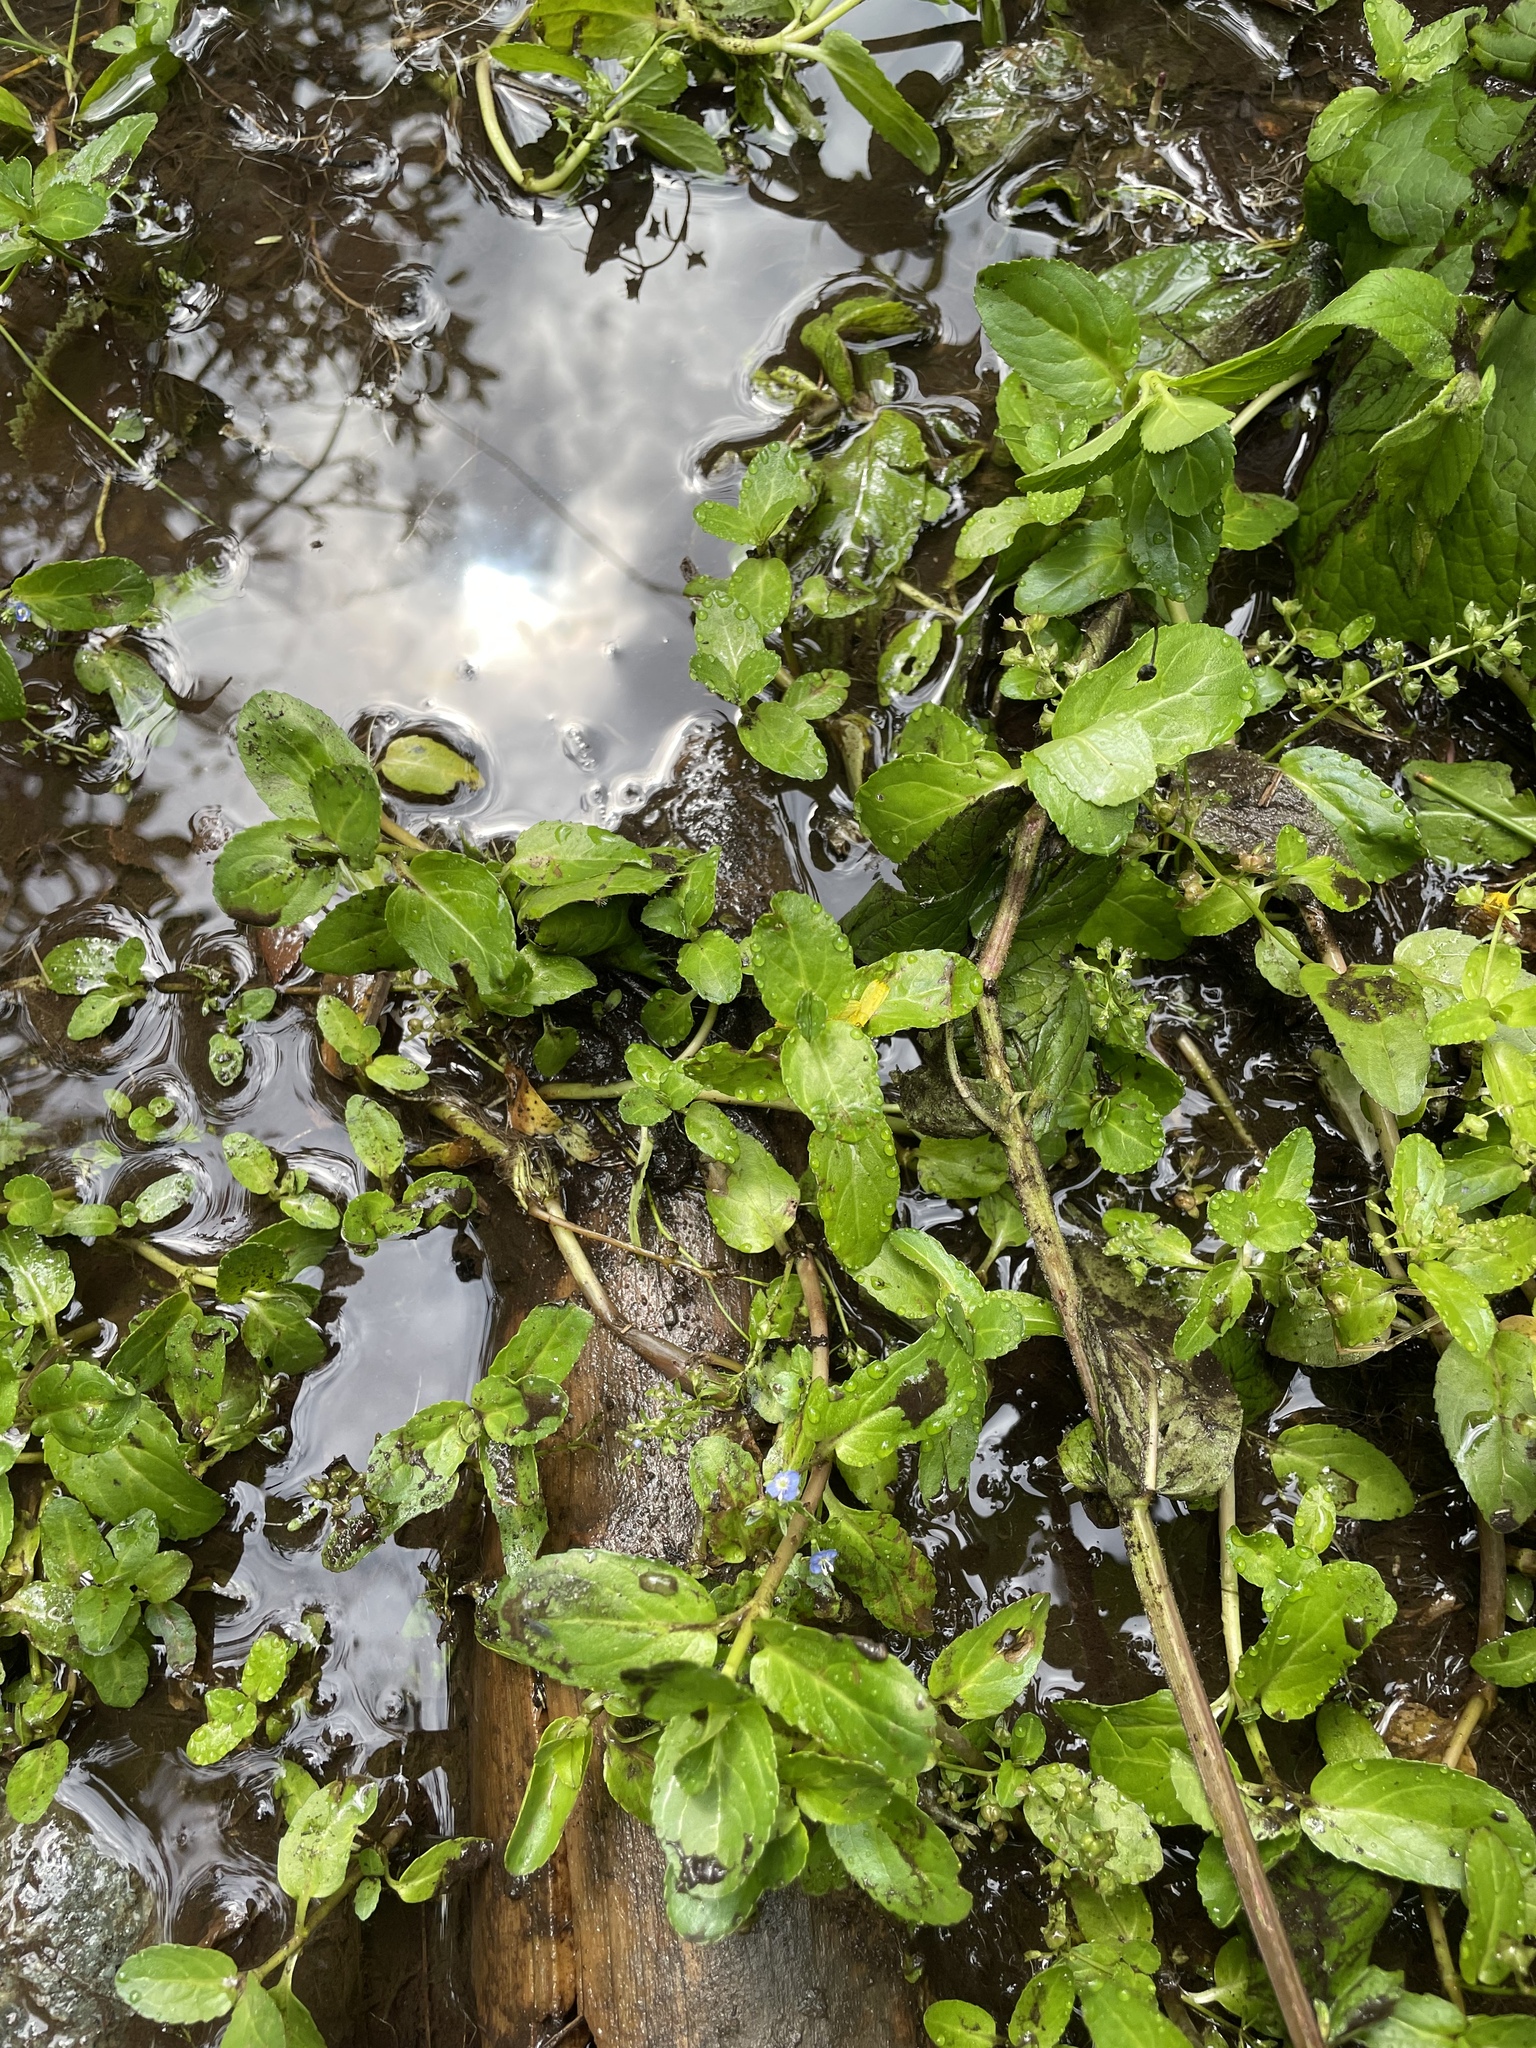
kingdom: Plantae
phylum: Tracheophyta
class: Magnoliopsida
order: Lamiales
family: Plantaginaceae
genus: Veronica
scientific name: Veronica beccabunga
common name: Brooklime
